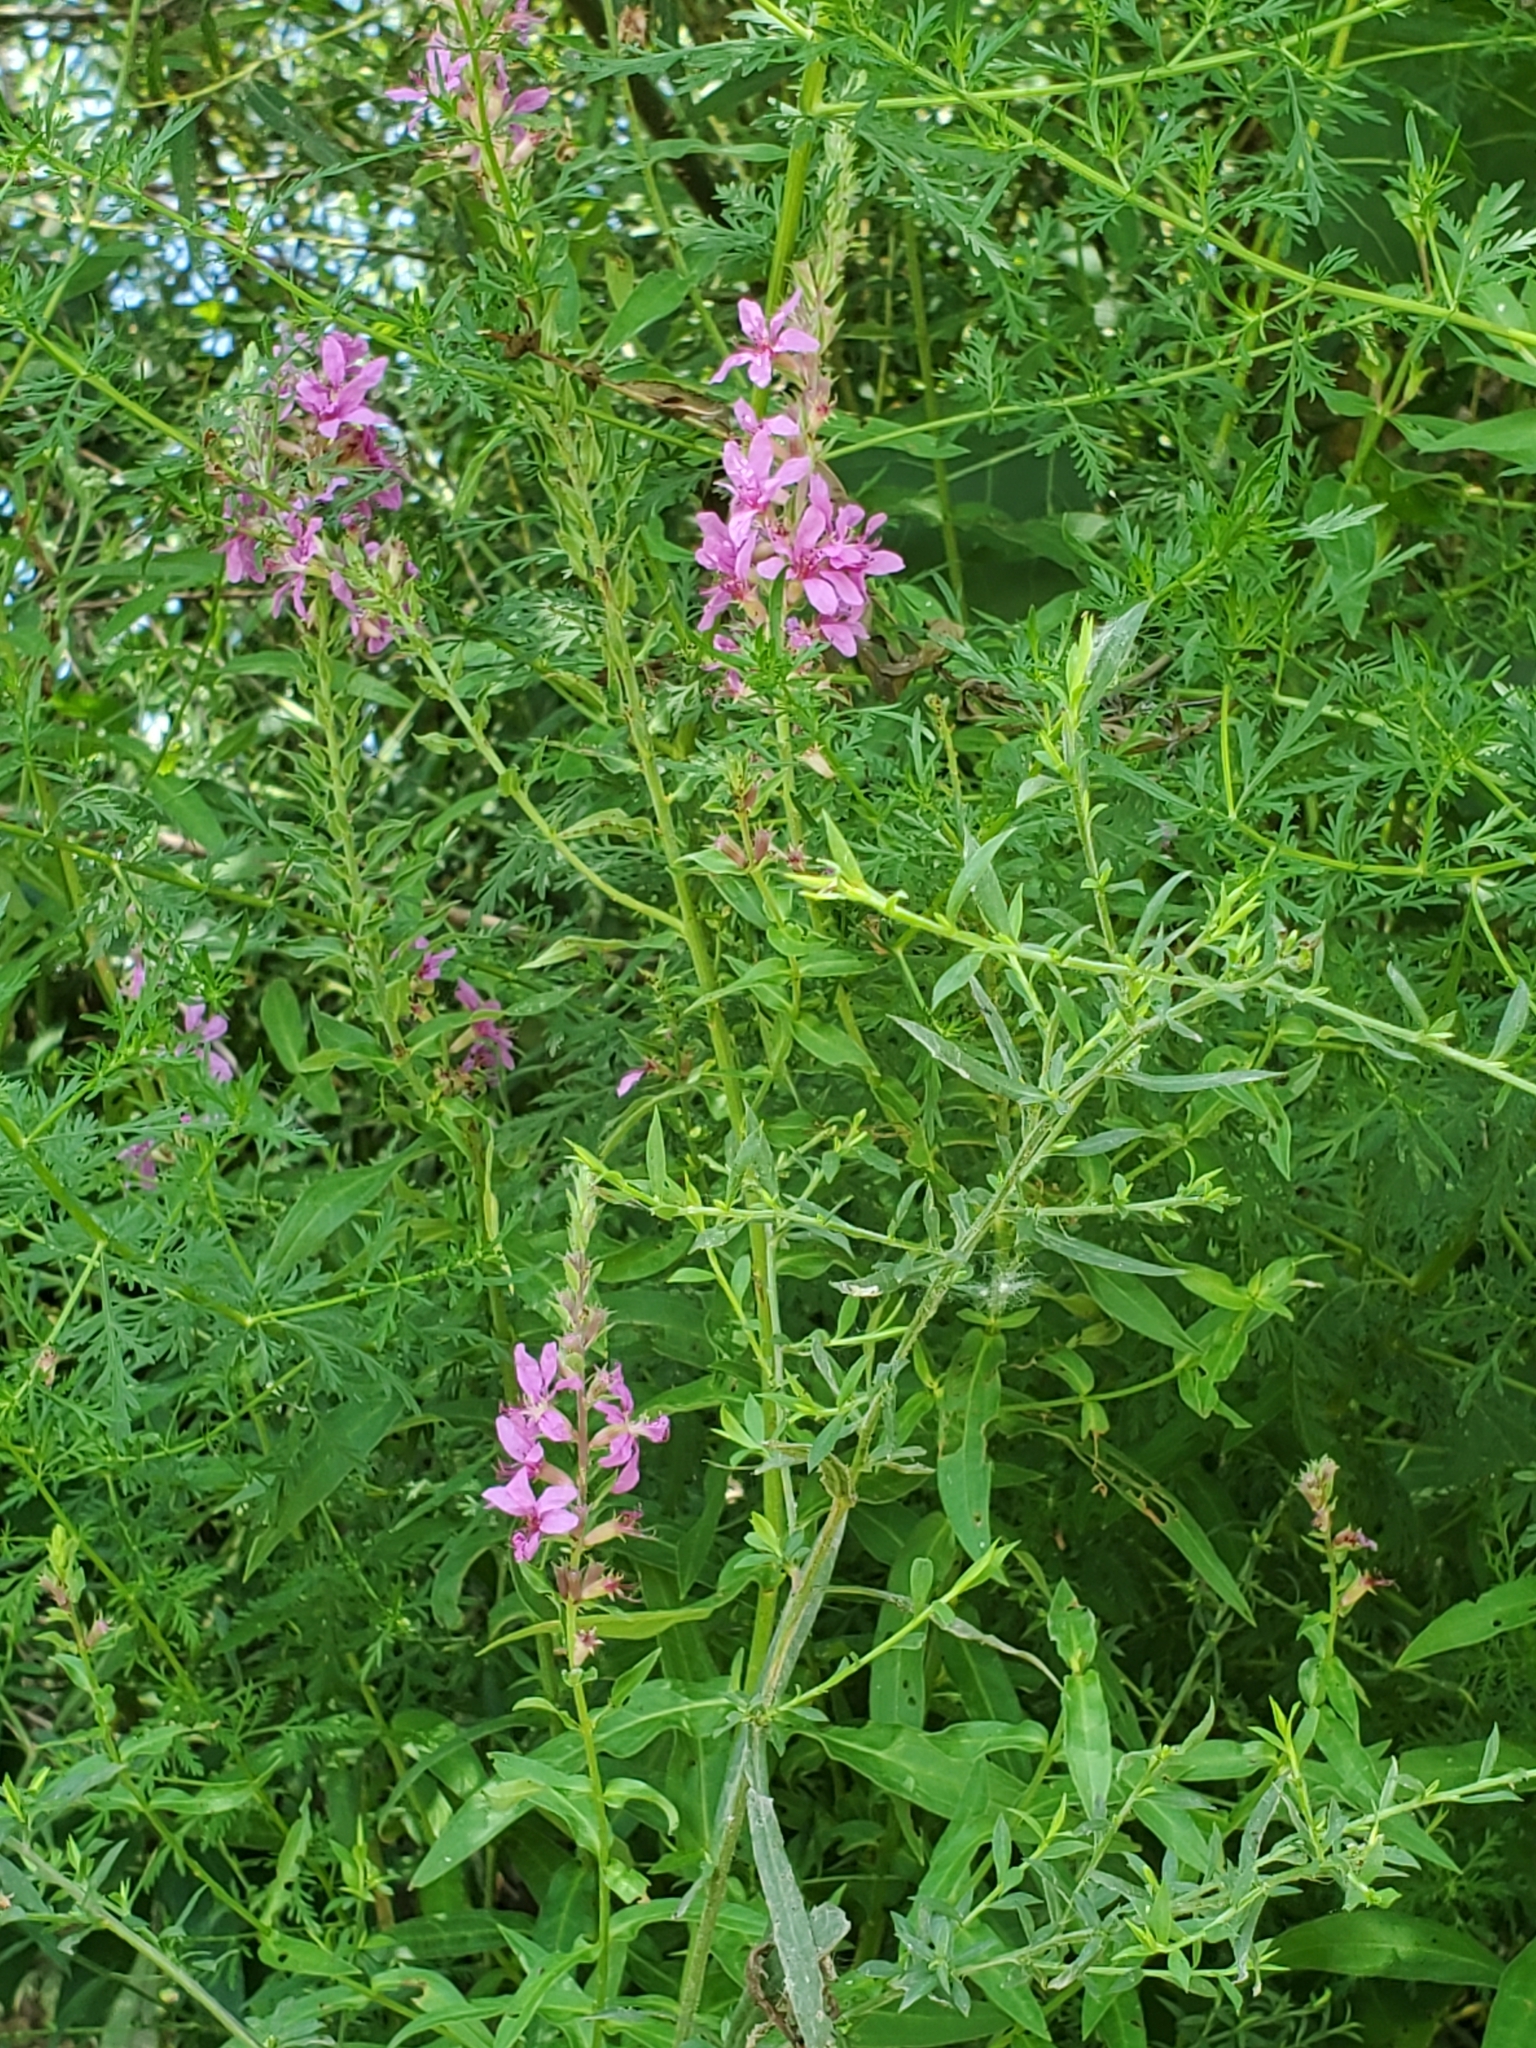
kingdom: Plantae
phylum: Tracheophyta
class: Magnoliopsida
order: Myrtales
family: Lythraceae
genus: Lythrum
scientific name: Lythrum salicaria
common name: Purple loosestrife
